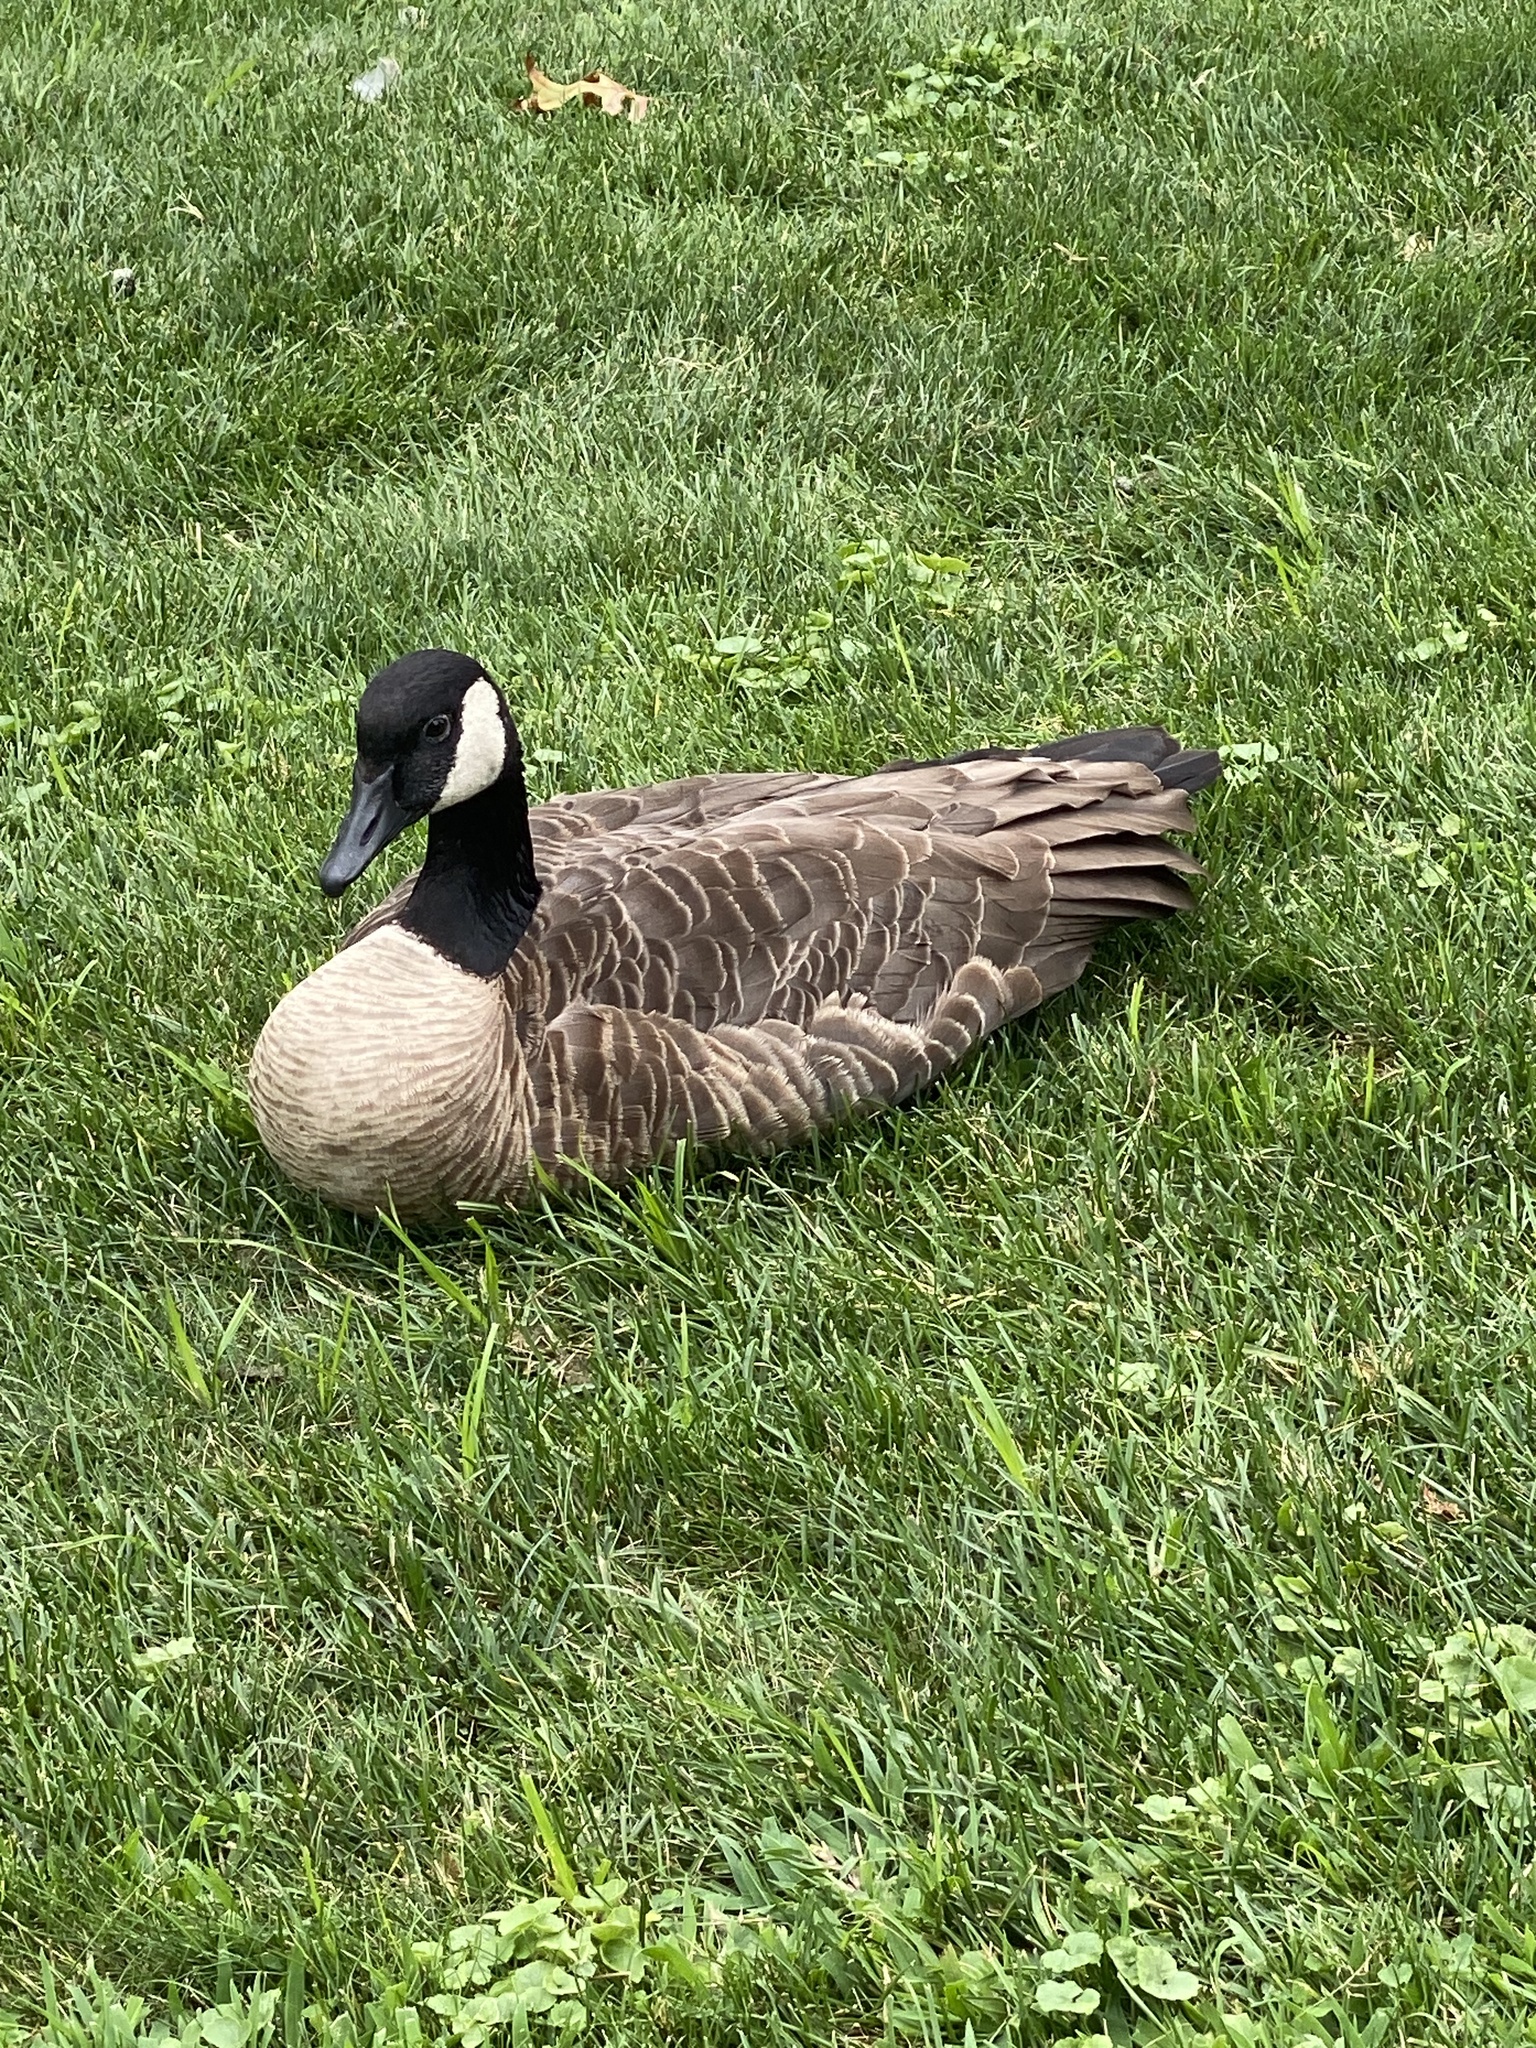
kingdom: Animalia
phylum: Chordata
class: Aves
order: Anseriformes
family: Anatidae
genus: Branta
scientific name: Branta canadensis
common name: Canada goose
